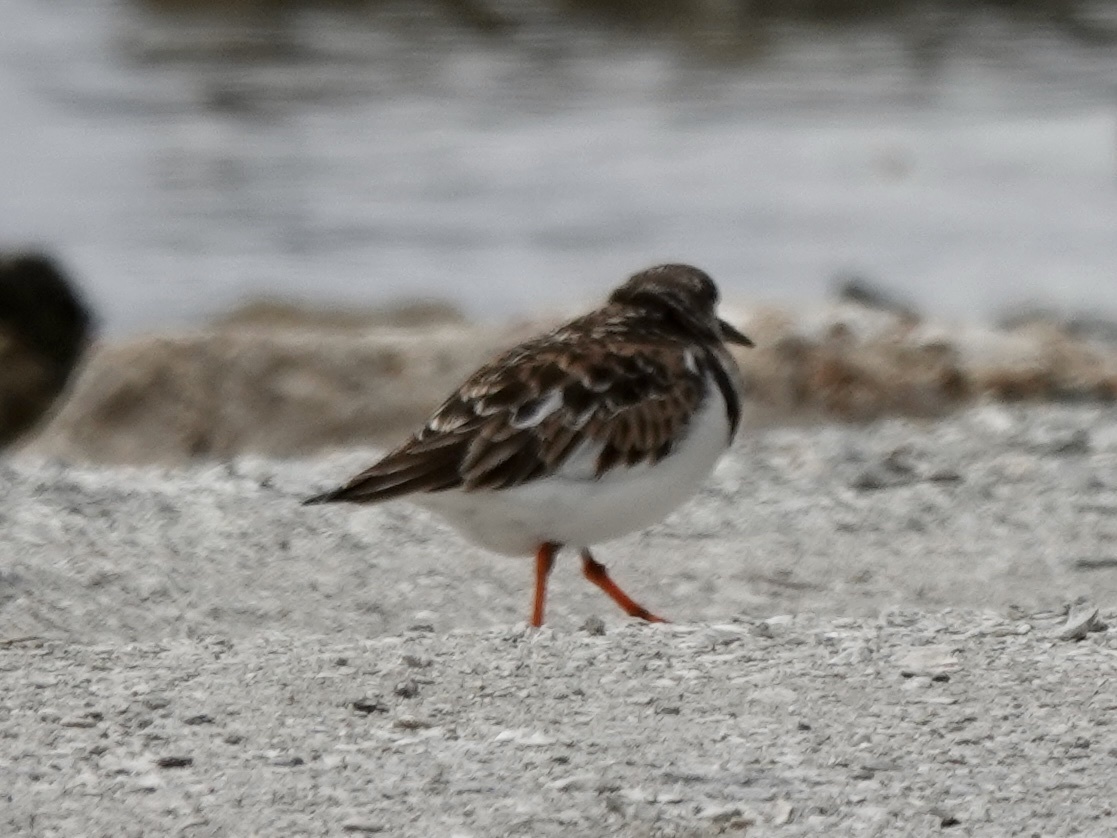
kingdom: Animalia
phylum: Chordata
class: Aves
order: Charadriiformes
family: Scolopacidae
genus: Arenaria
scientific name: Arenaria interpres
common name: Ruddy turnstone
